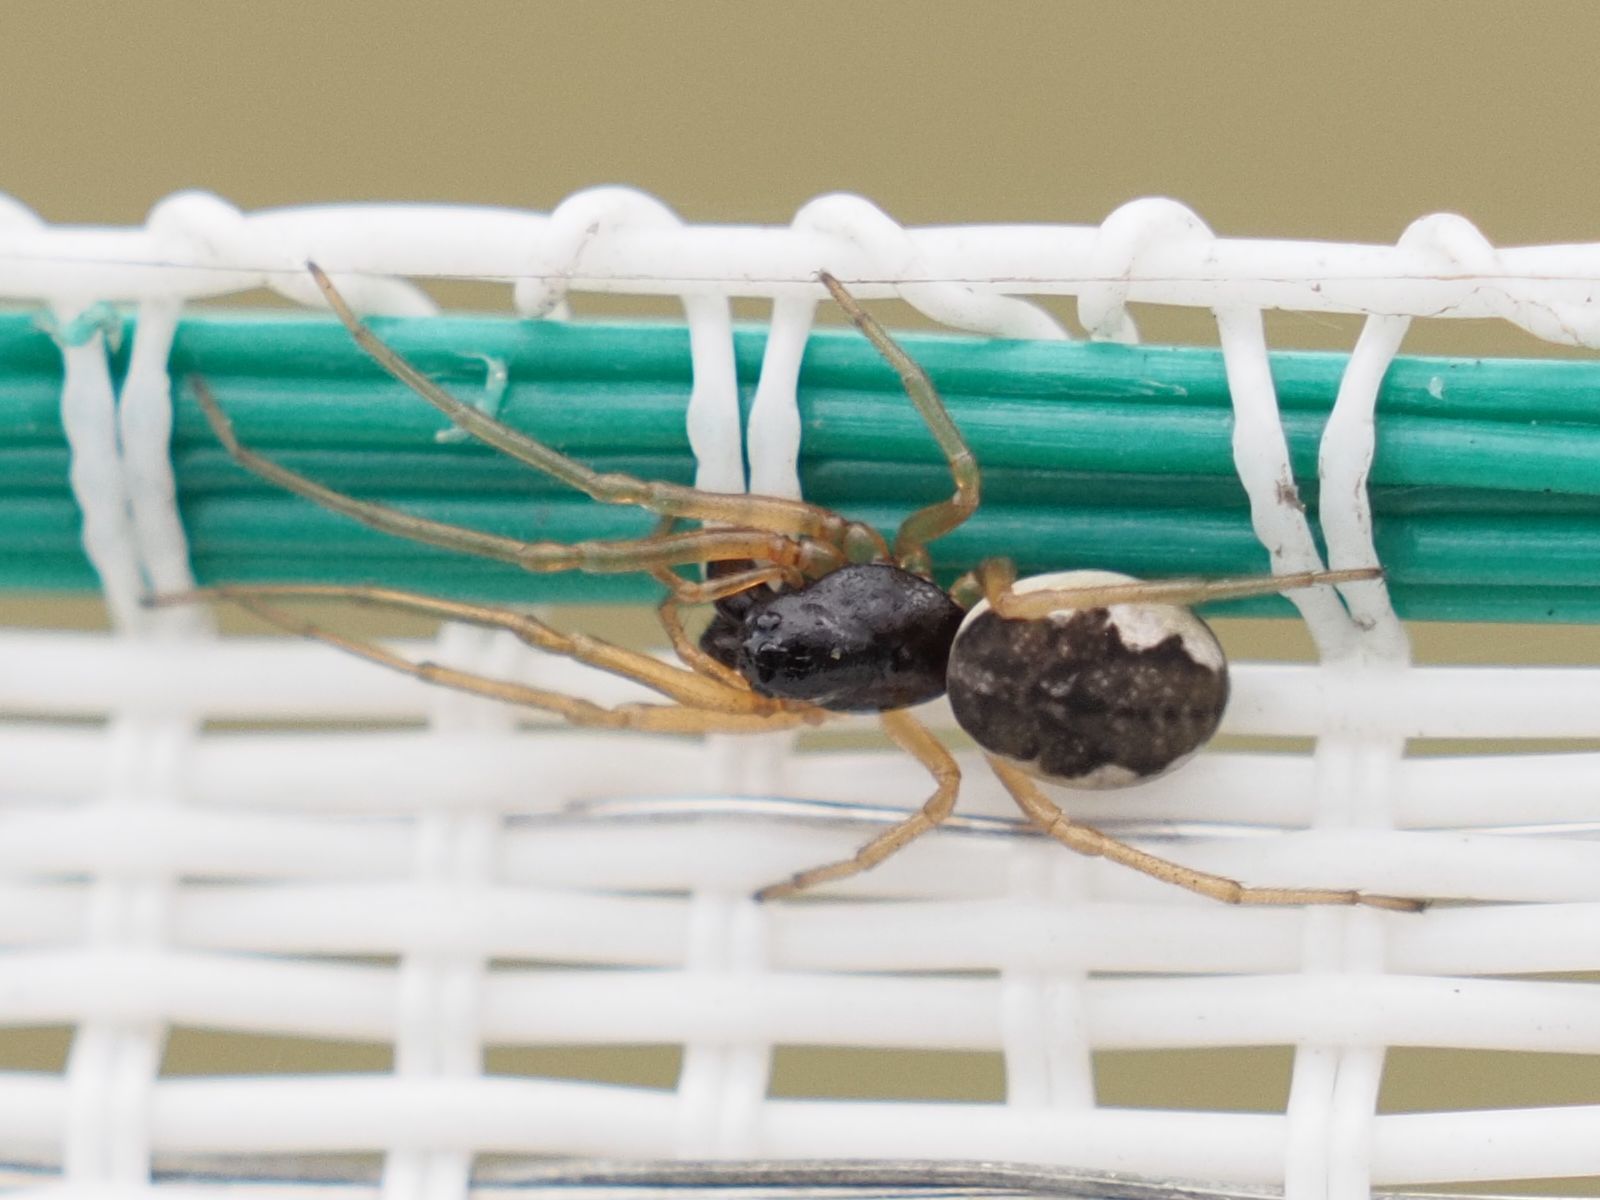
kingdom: Animalia
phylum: Arthropoda
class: Arachnida
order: Araneae
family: Tetragnathidae
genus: Pachygnatha
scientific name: Pachygnatha degeeri
